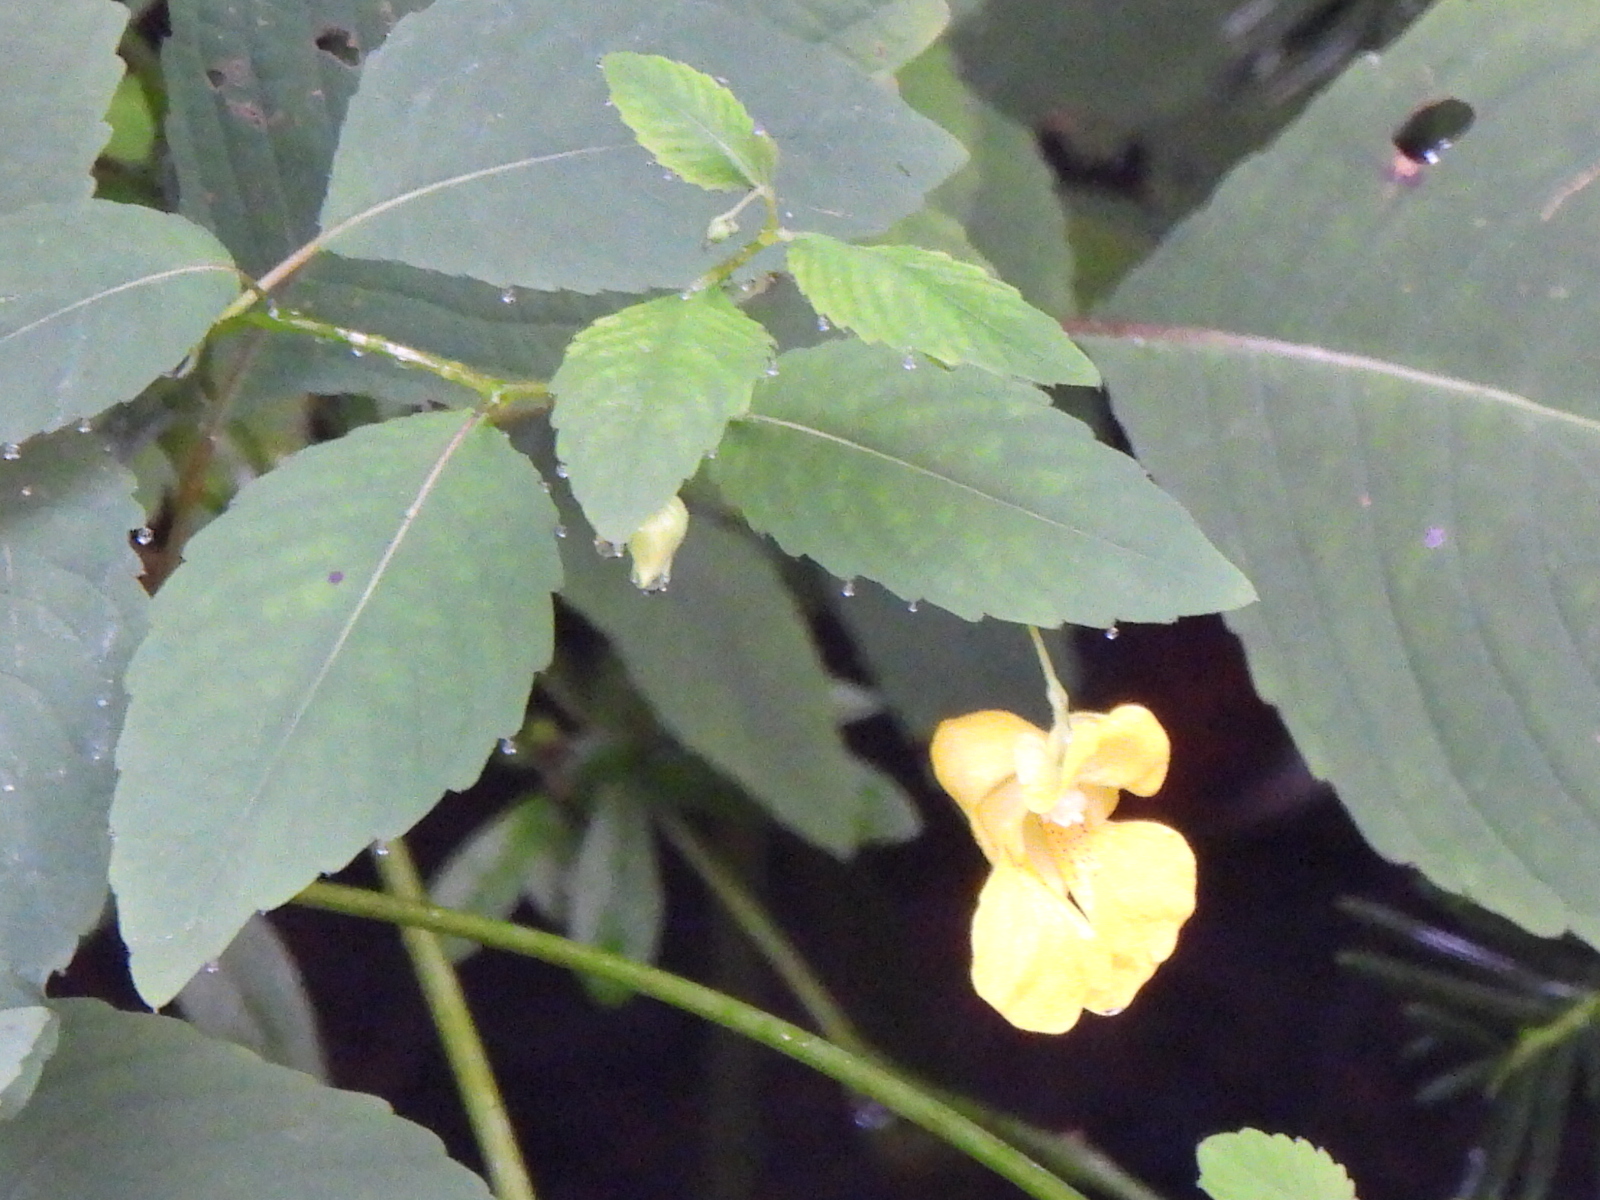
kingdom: Plantae
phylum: Tracheophyta
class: Magnoliopsida
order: Ericales
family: Balsaminaceae
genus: Impatiens
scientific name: Impatiens pallida
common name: Pale snapweed
